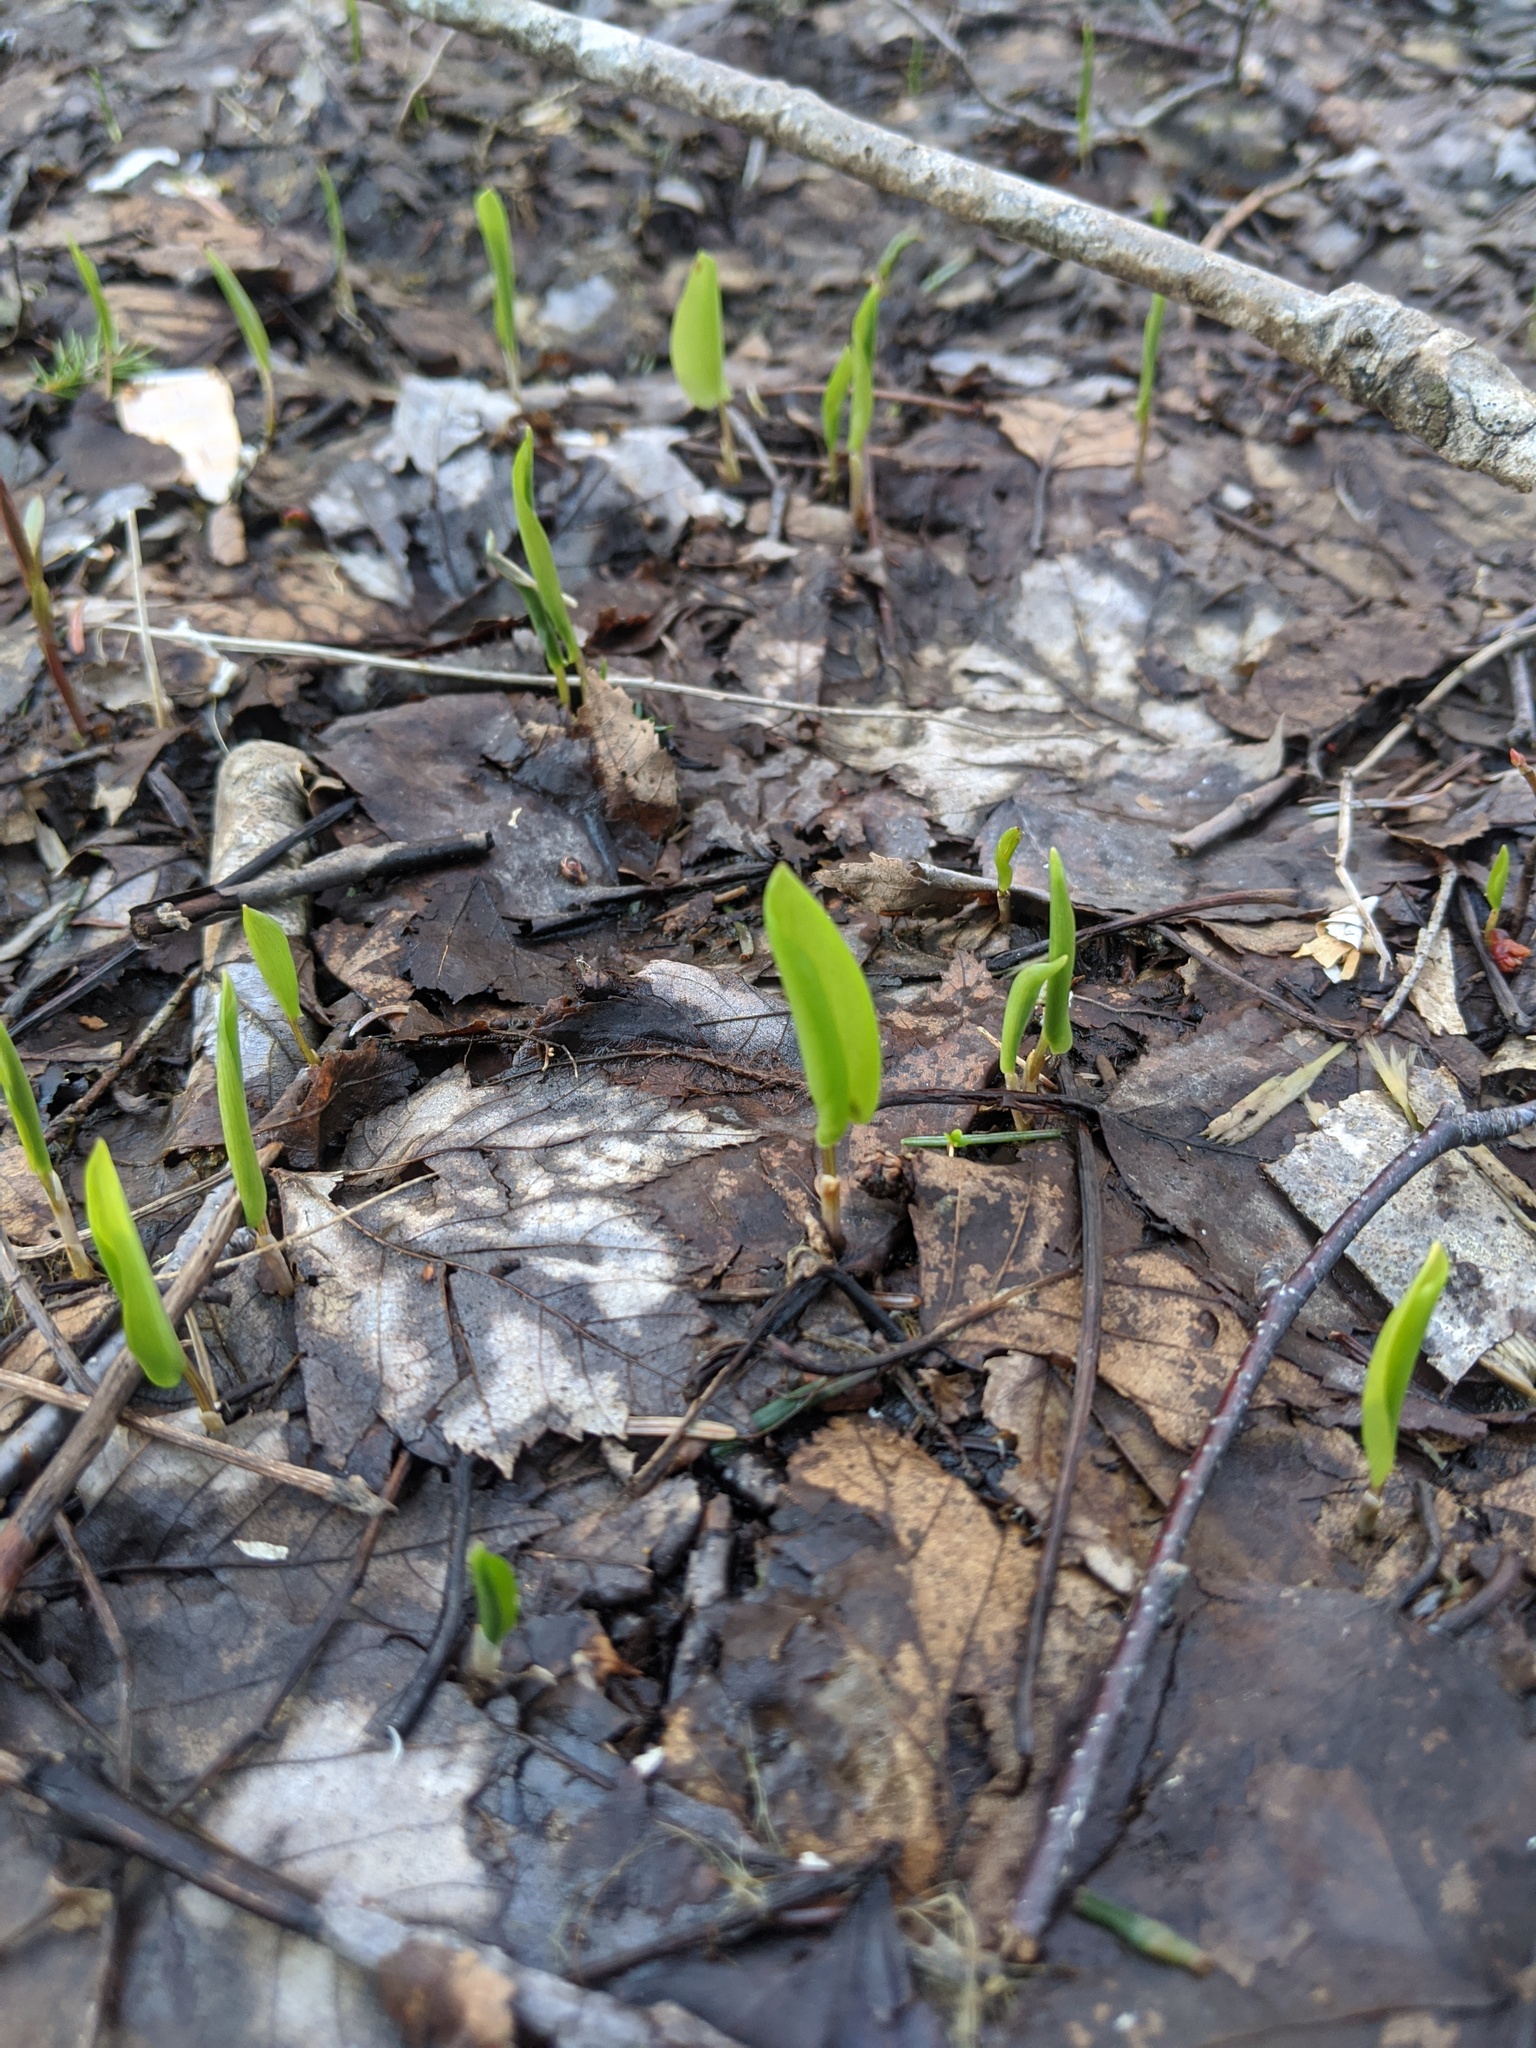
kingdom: Plantae
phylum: Tracheophyta
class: Liliopsida
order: Asparagales
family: Asparagaceae
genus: Maianthemum
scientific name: Maianthemum canadense
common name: False lily-of-the-valley
